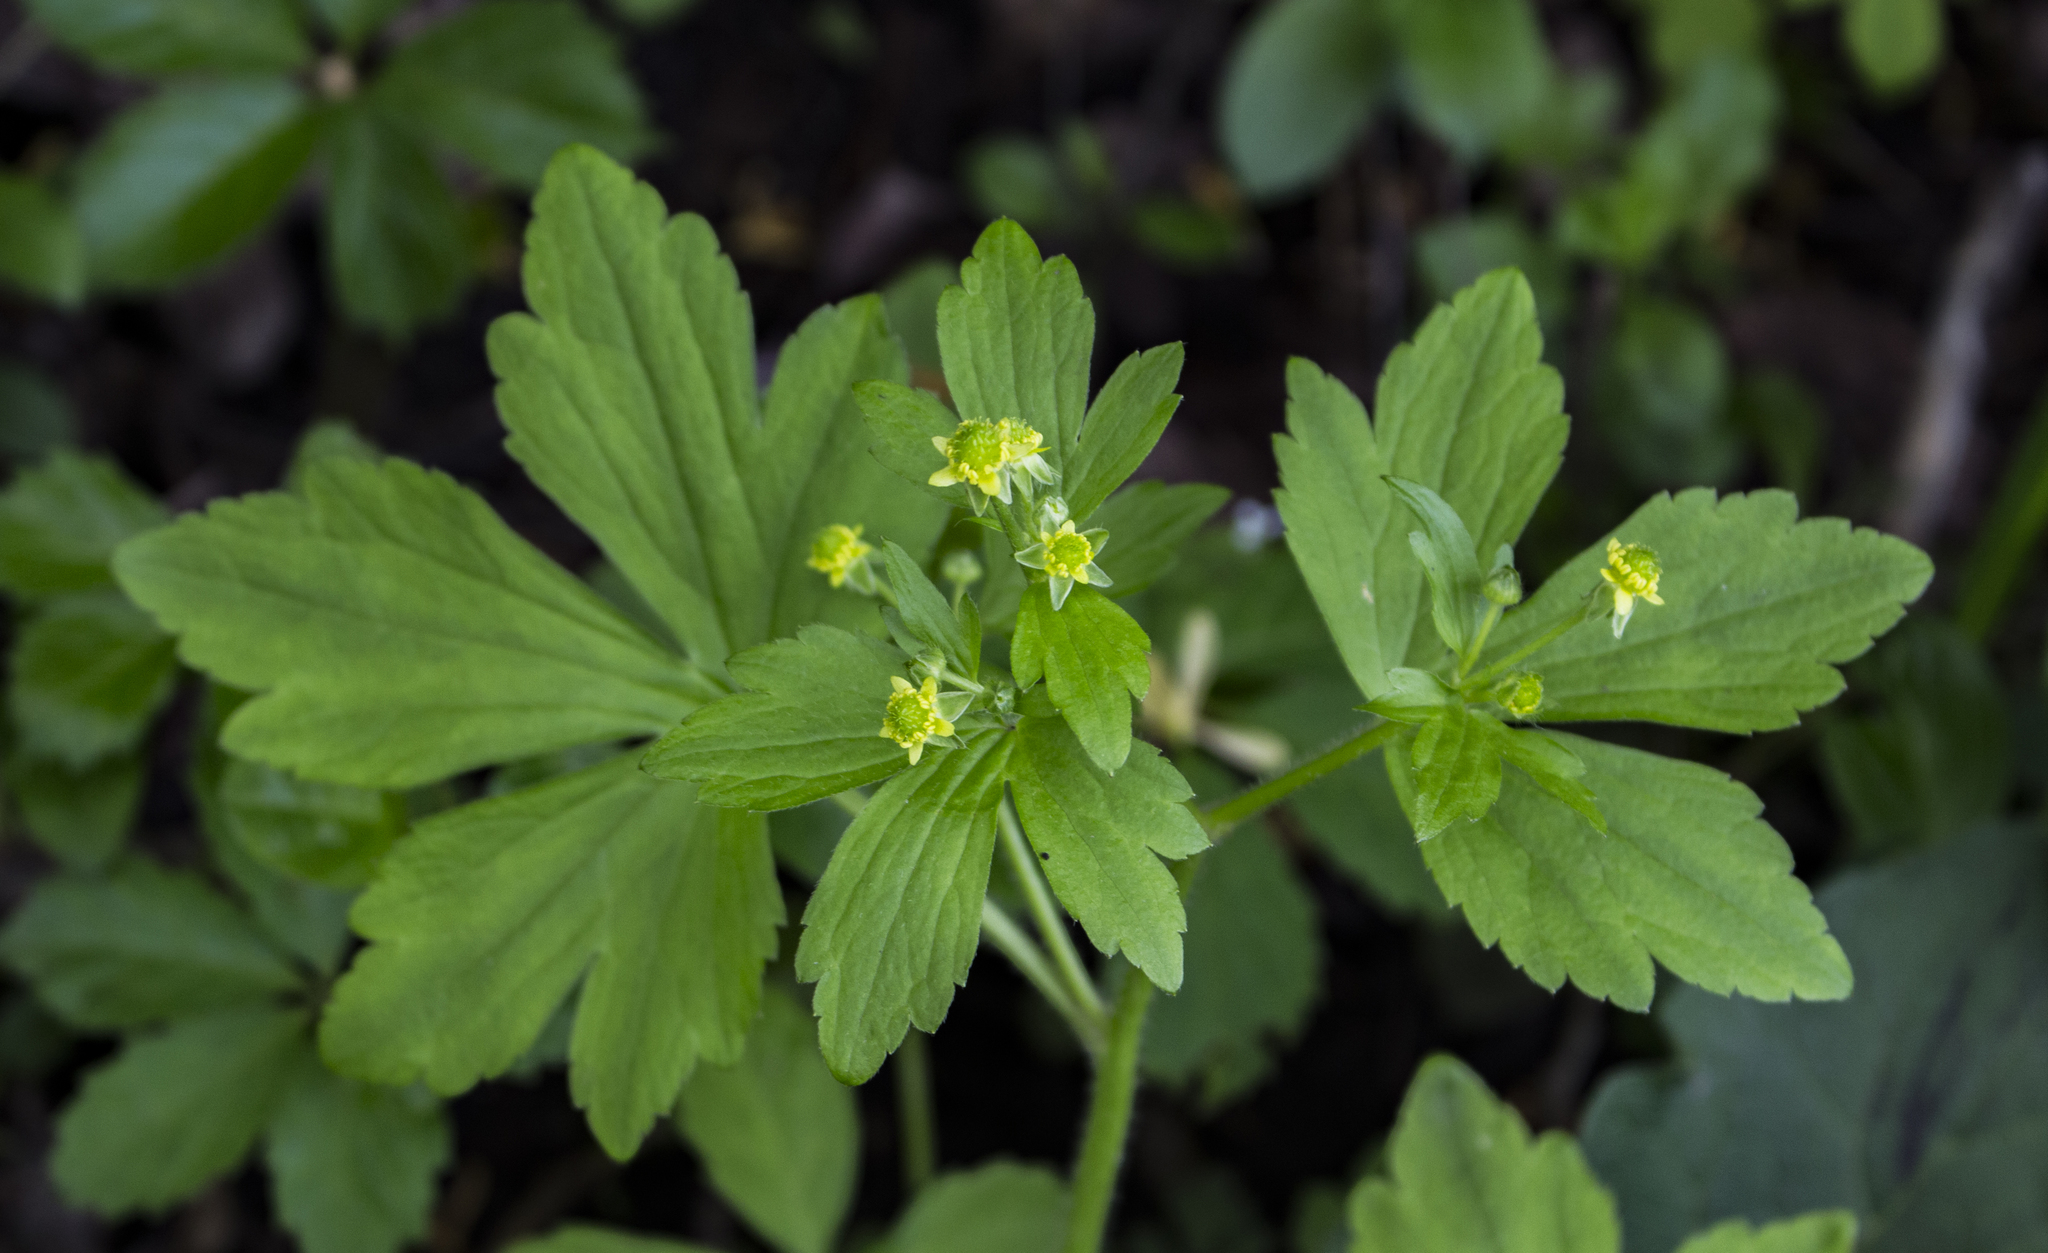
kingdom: Plantae
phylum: Tracheophyta
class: Magnoliopsida
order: Ranunculales
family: Ranunculaceae
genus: Ranunculus
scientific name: Ranunculus recurvatus
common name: Blisterwort
